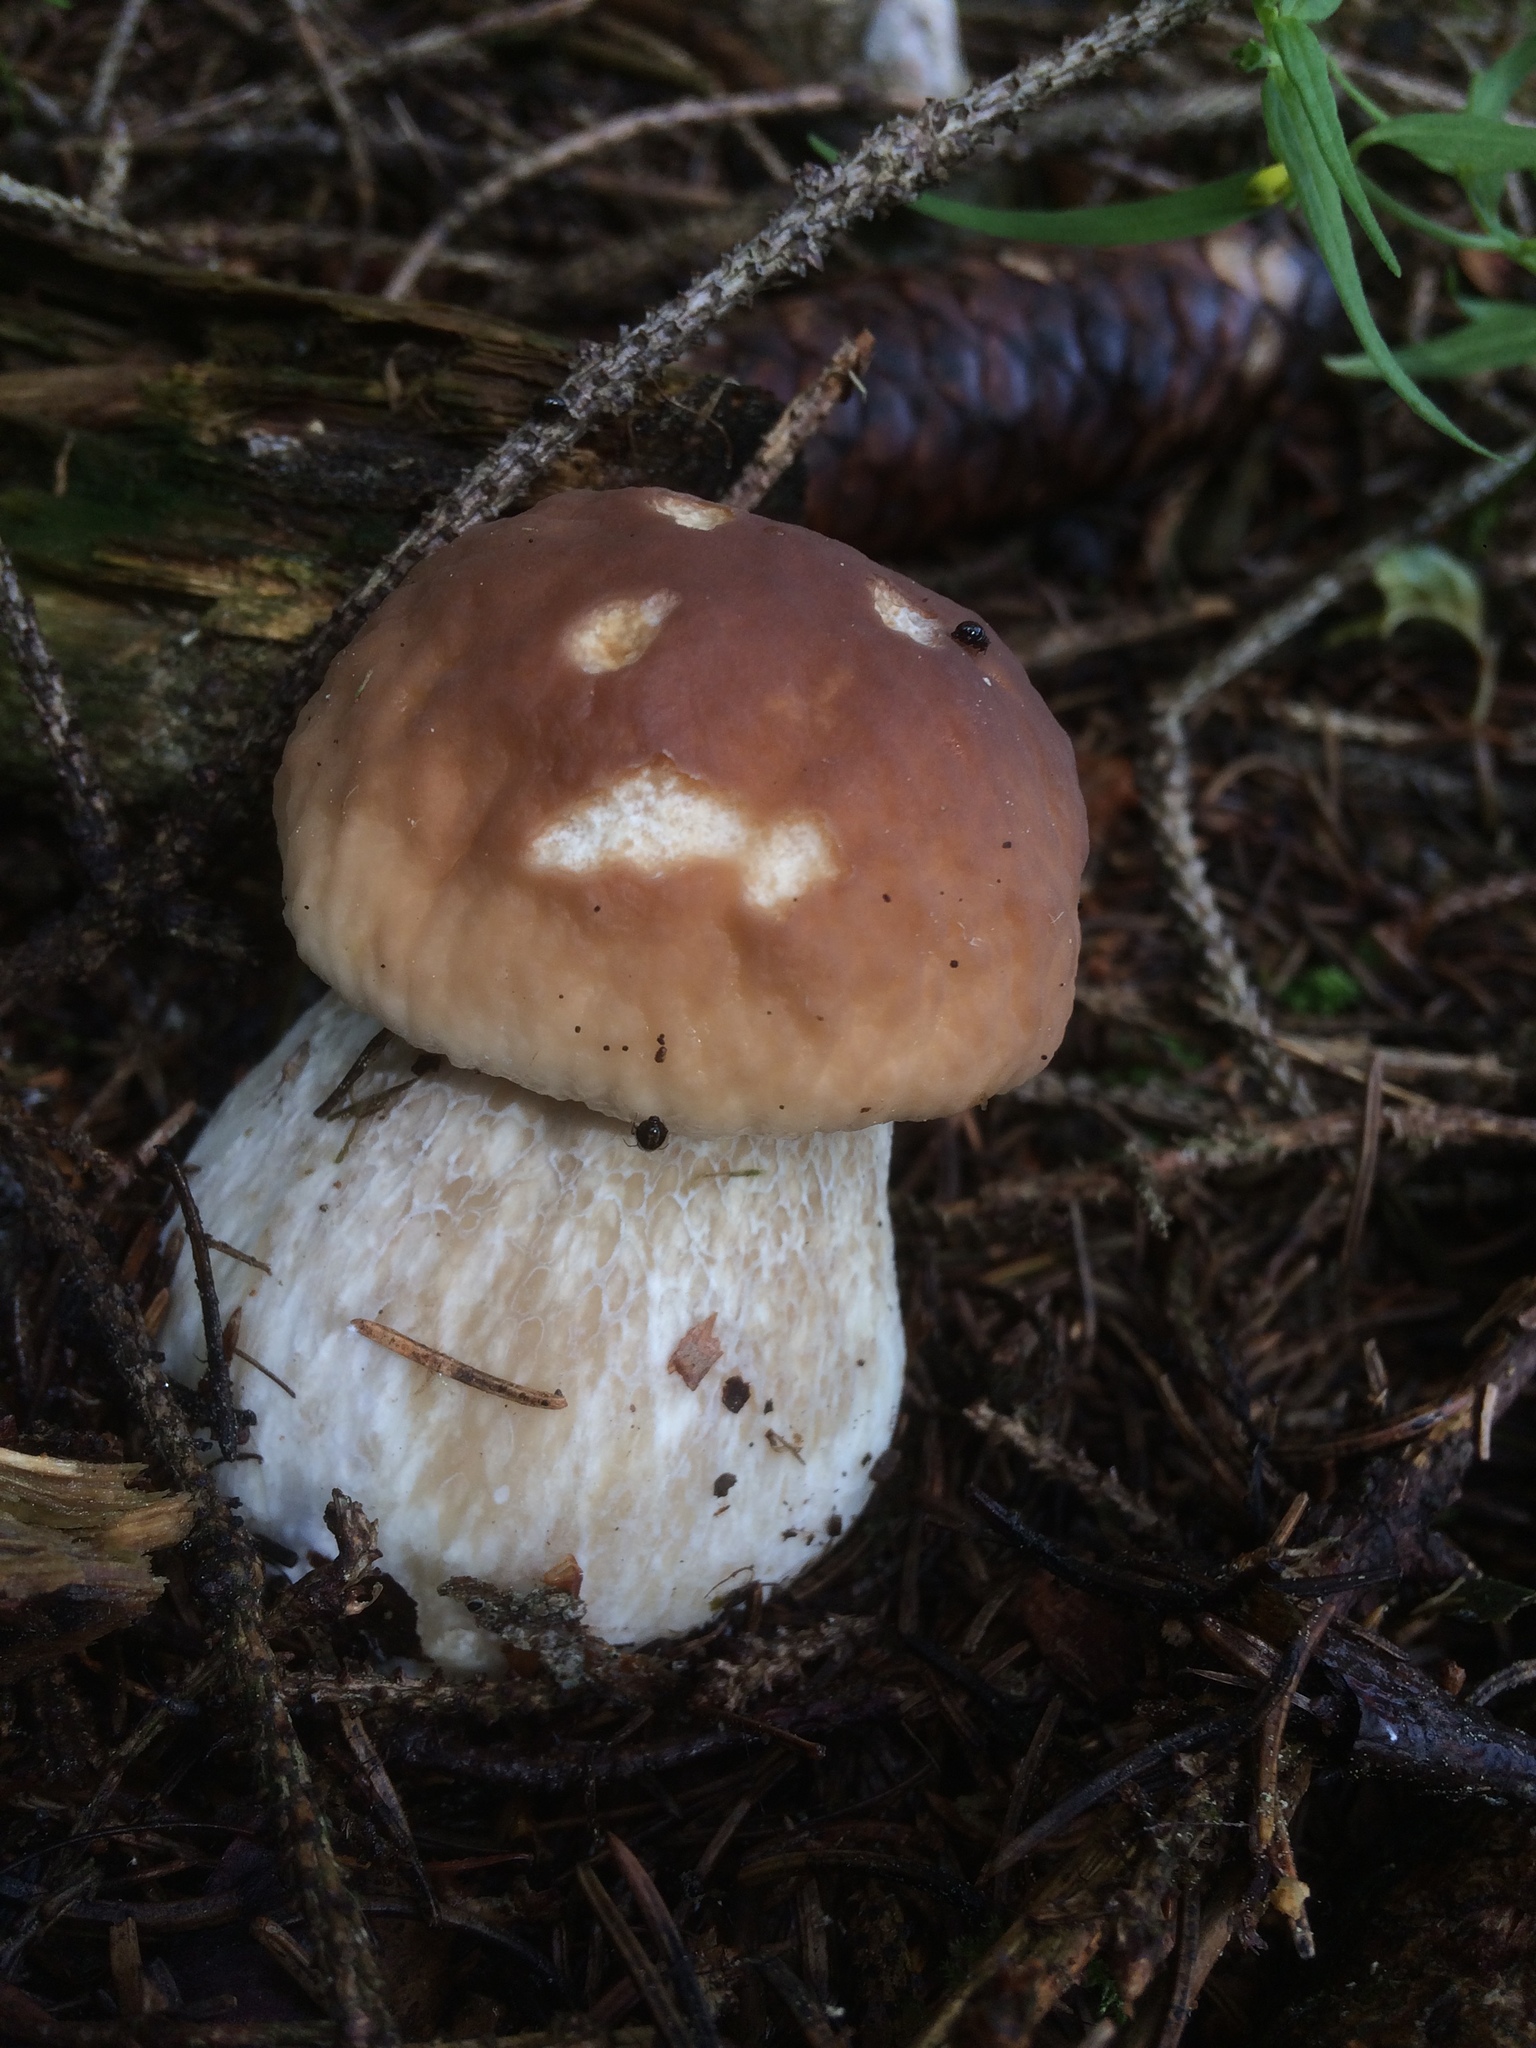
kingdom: Fungi
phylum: Basidiomycota
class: Agaricomycetes
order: Boletales
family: Boletaceae
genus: Boletus
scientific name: Boletus edulis
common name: Cep
